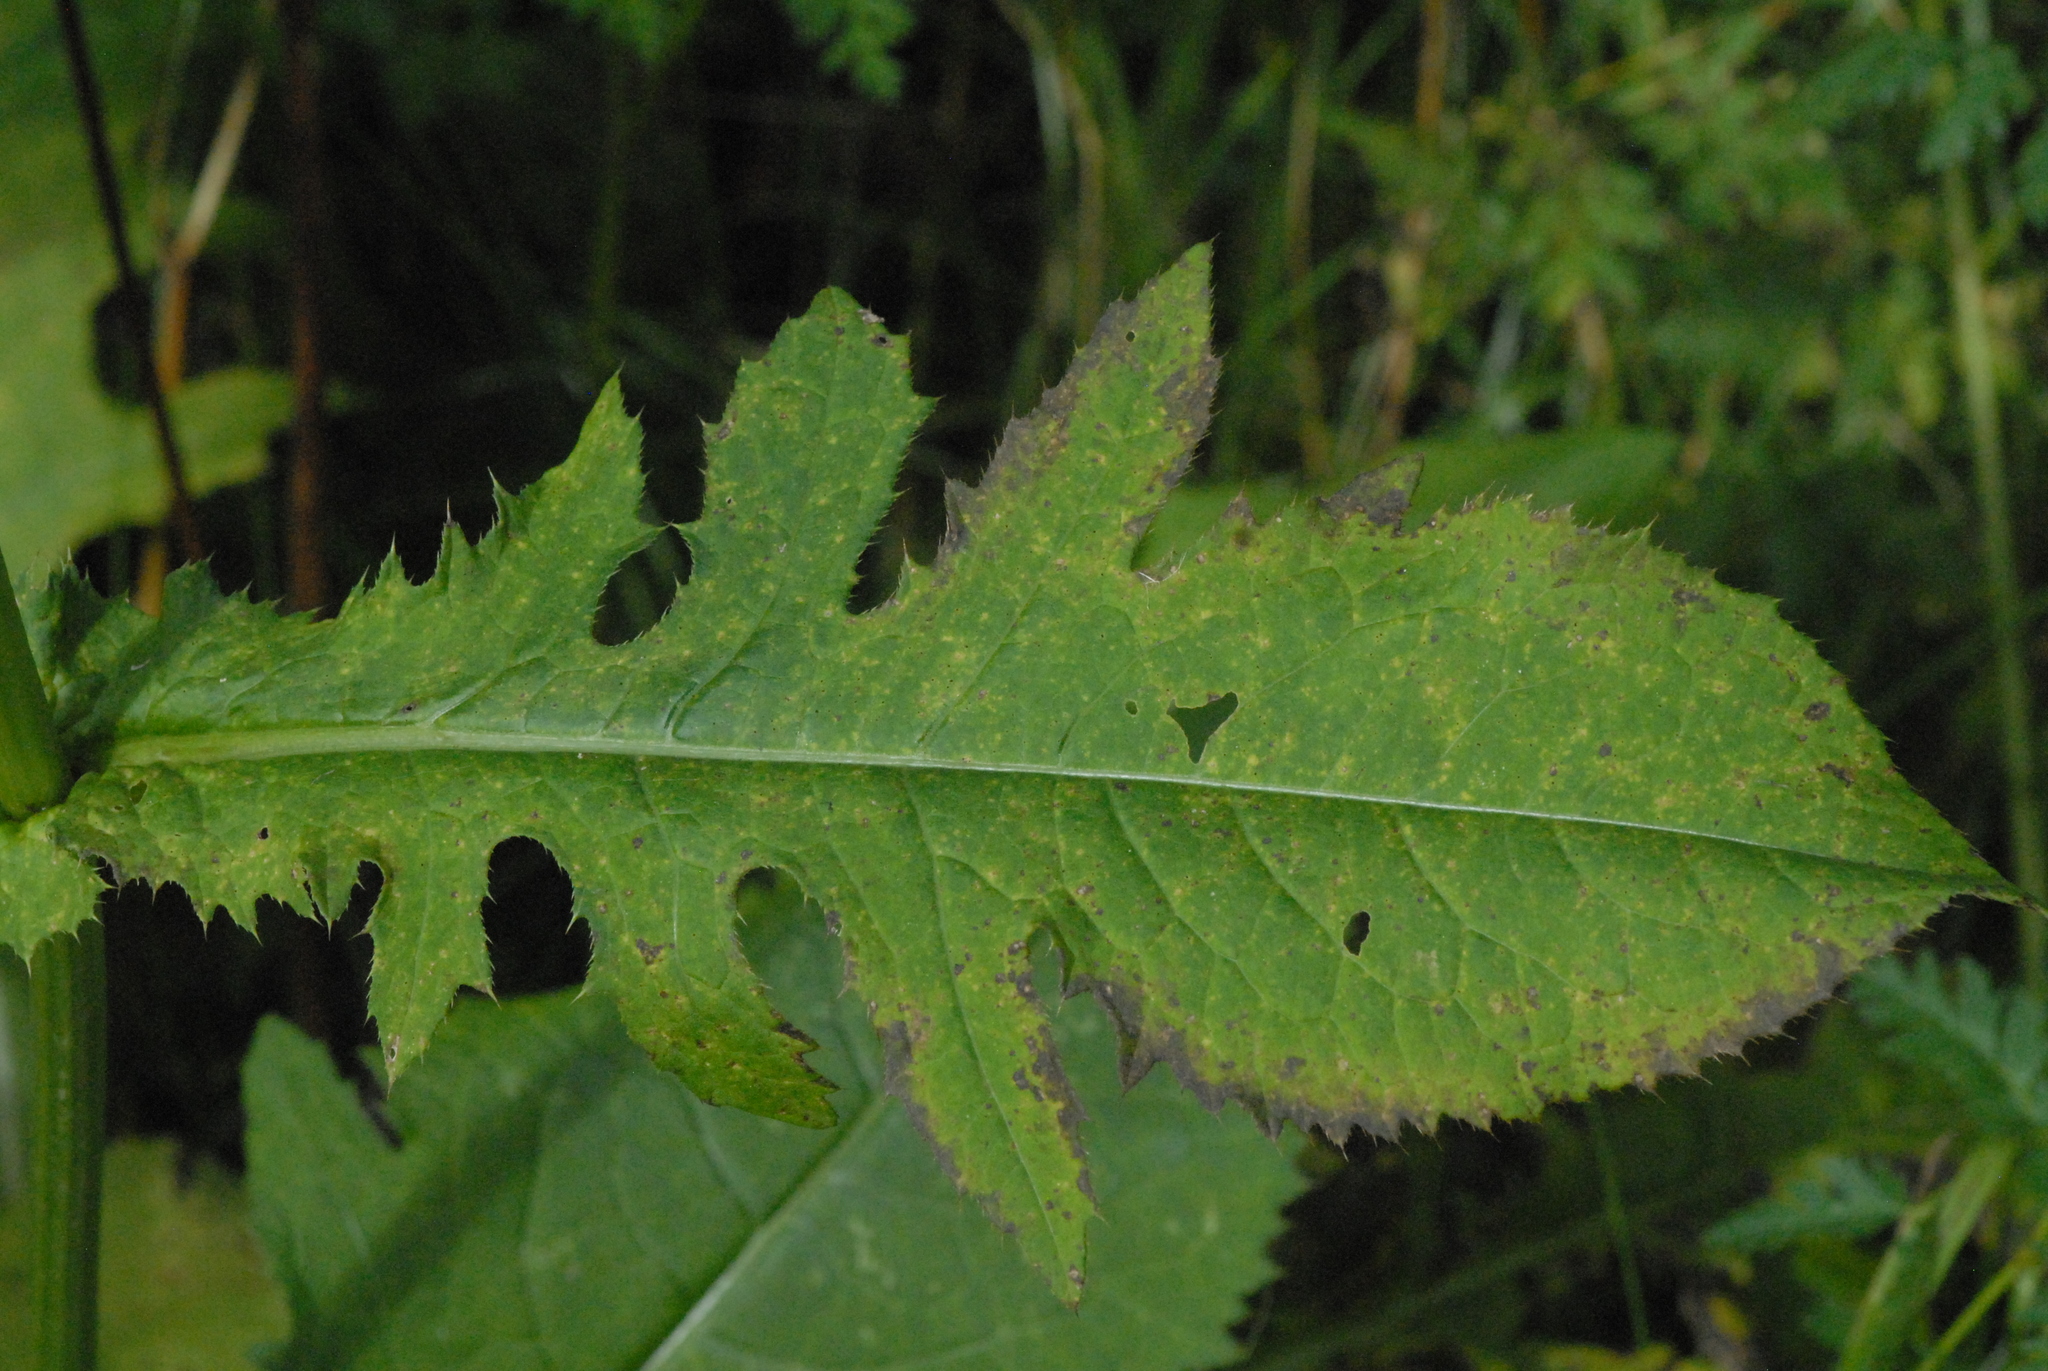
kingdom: Plantae
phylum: Tracheophyta
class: Magnoliopsida
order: Asterales
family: Asteraceae
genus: Cirsium
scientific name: Cirsium oleraceum
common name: Cabbage thistle
